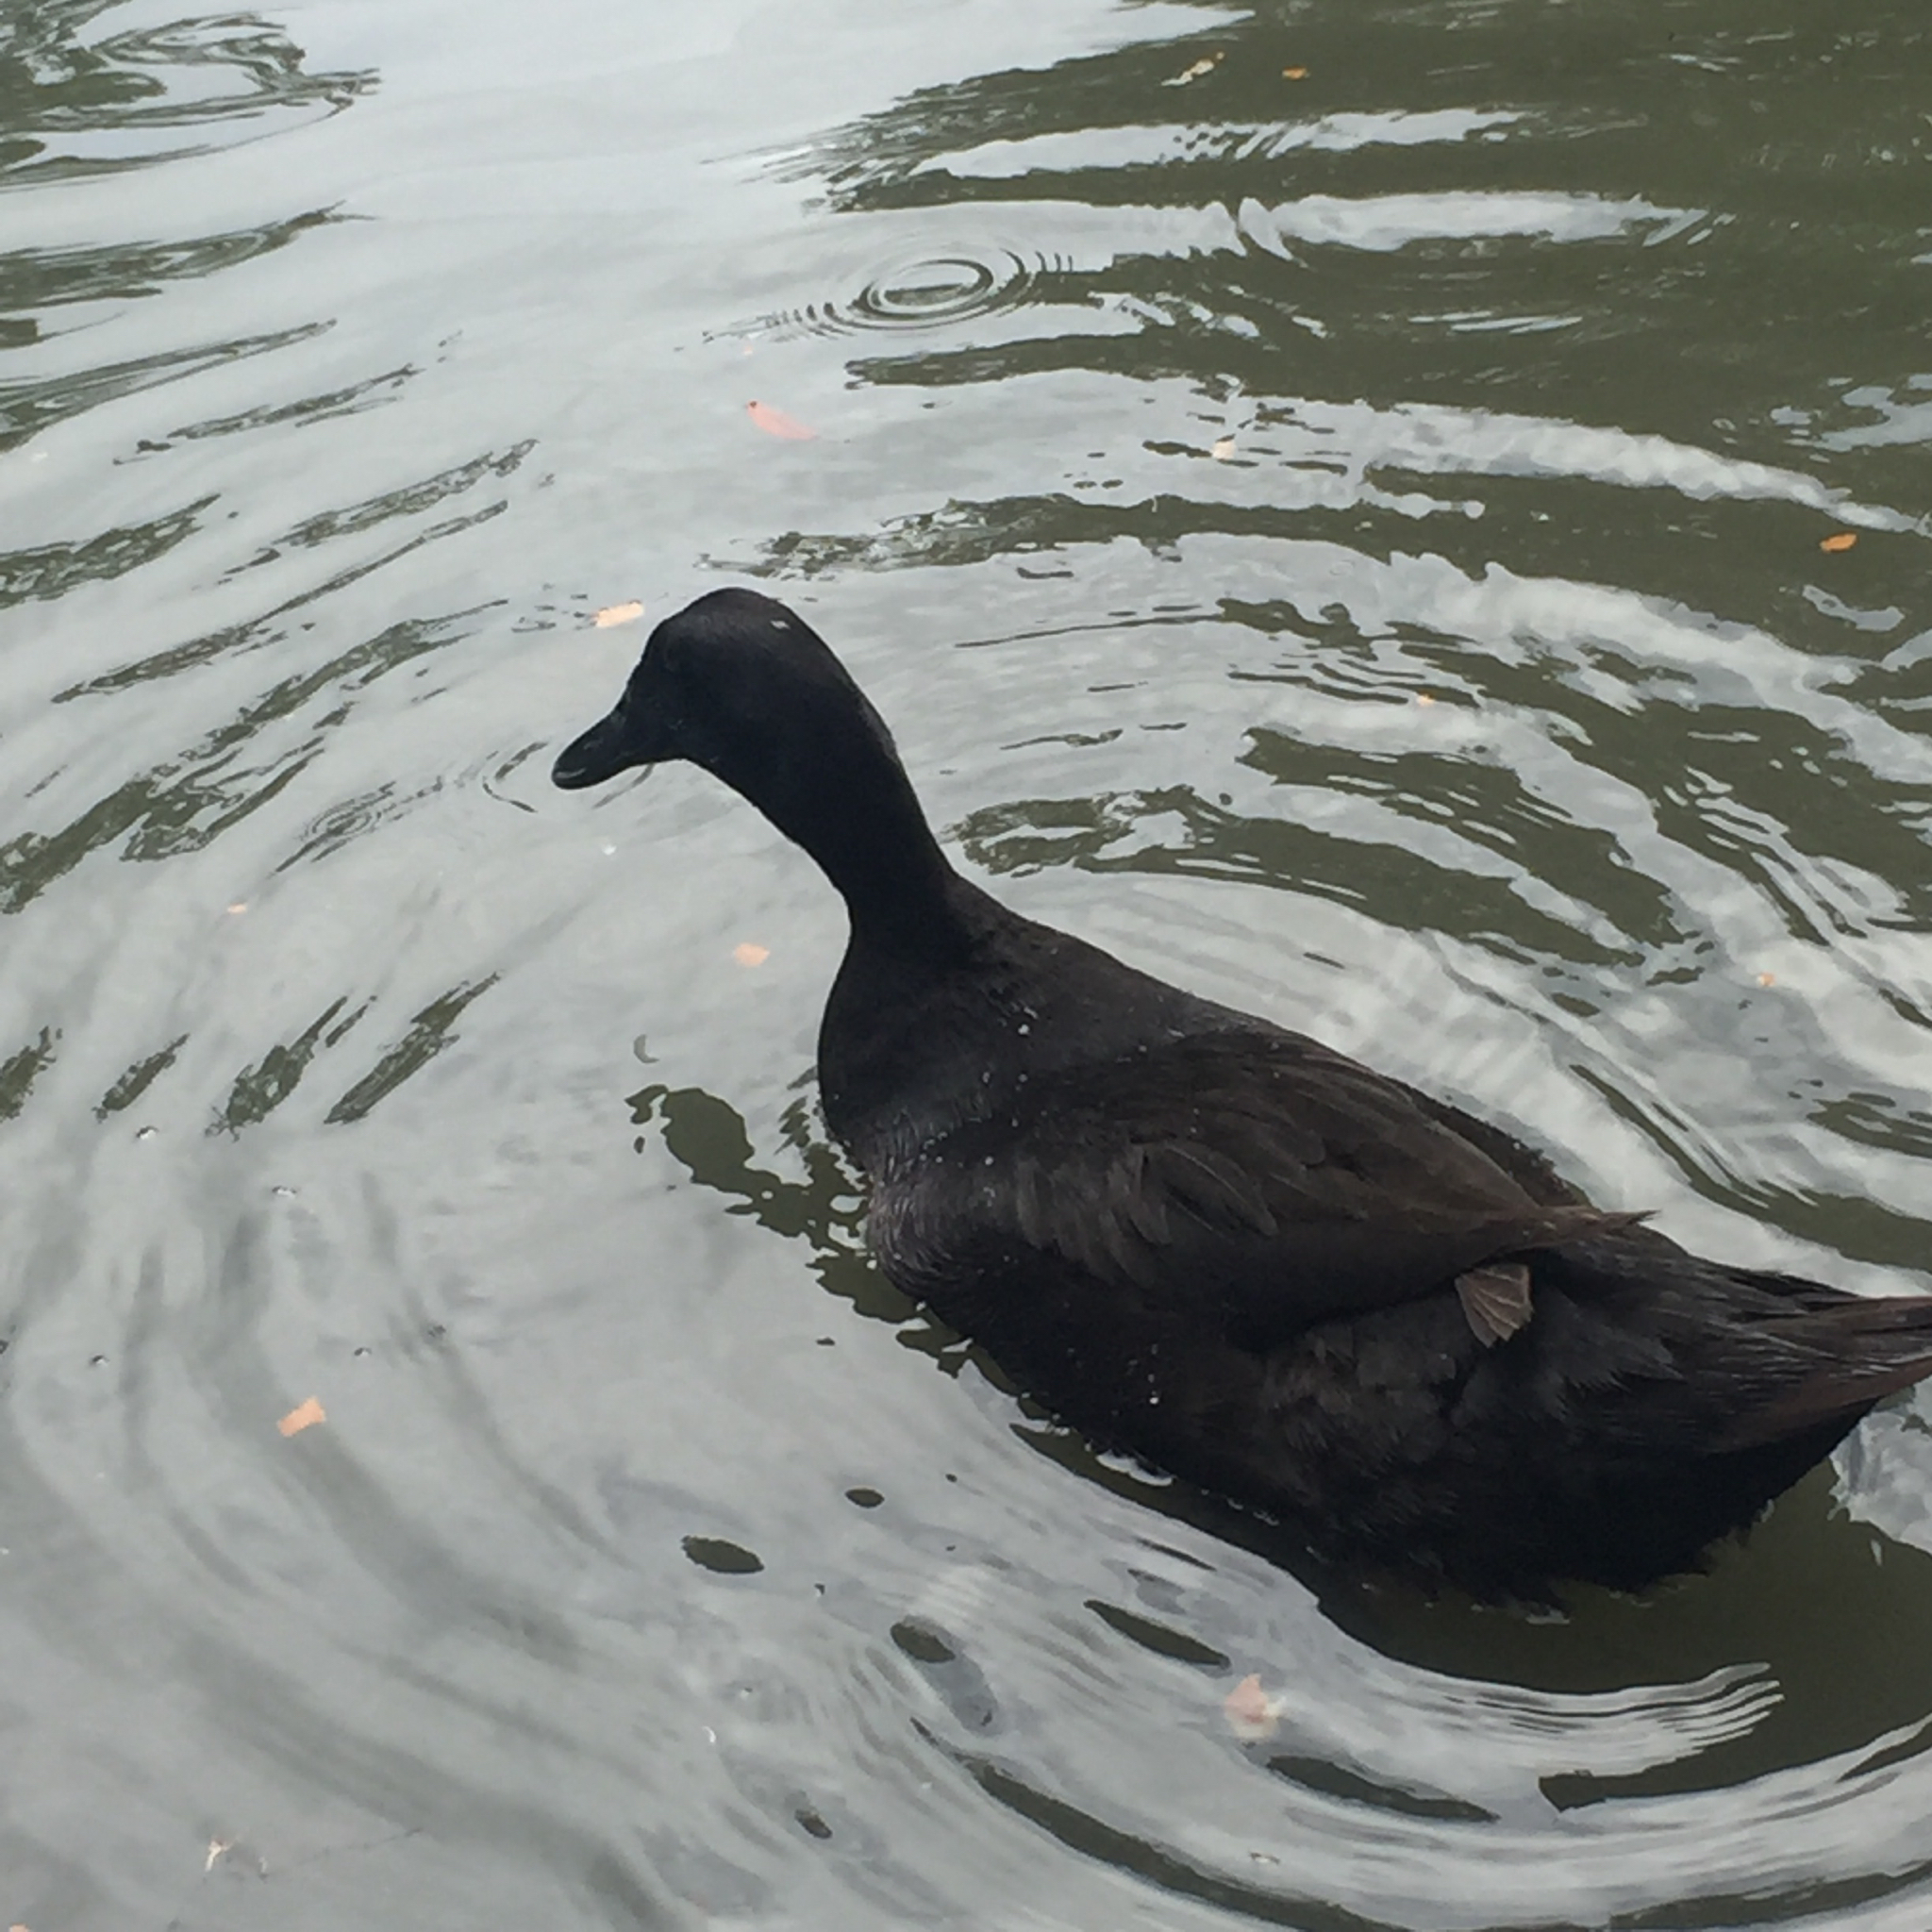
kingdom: Animalia
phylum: Chordata
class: Aves
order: Anseriformes
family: Anatidae
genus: Anas
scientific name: Anas platyrhynchos
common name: Mallard
